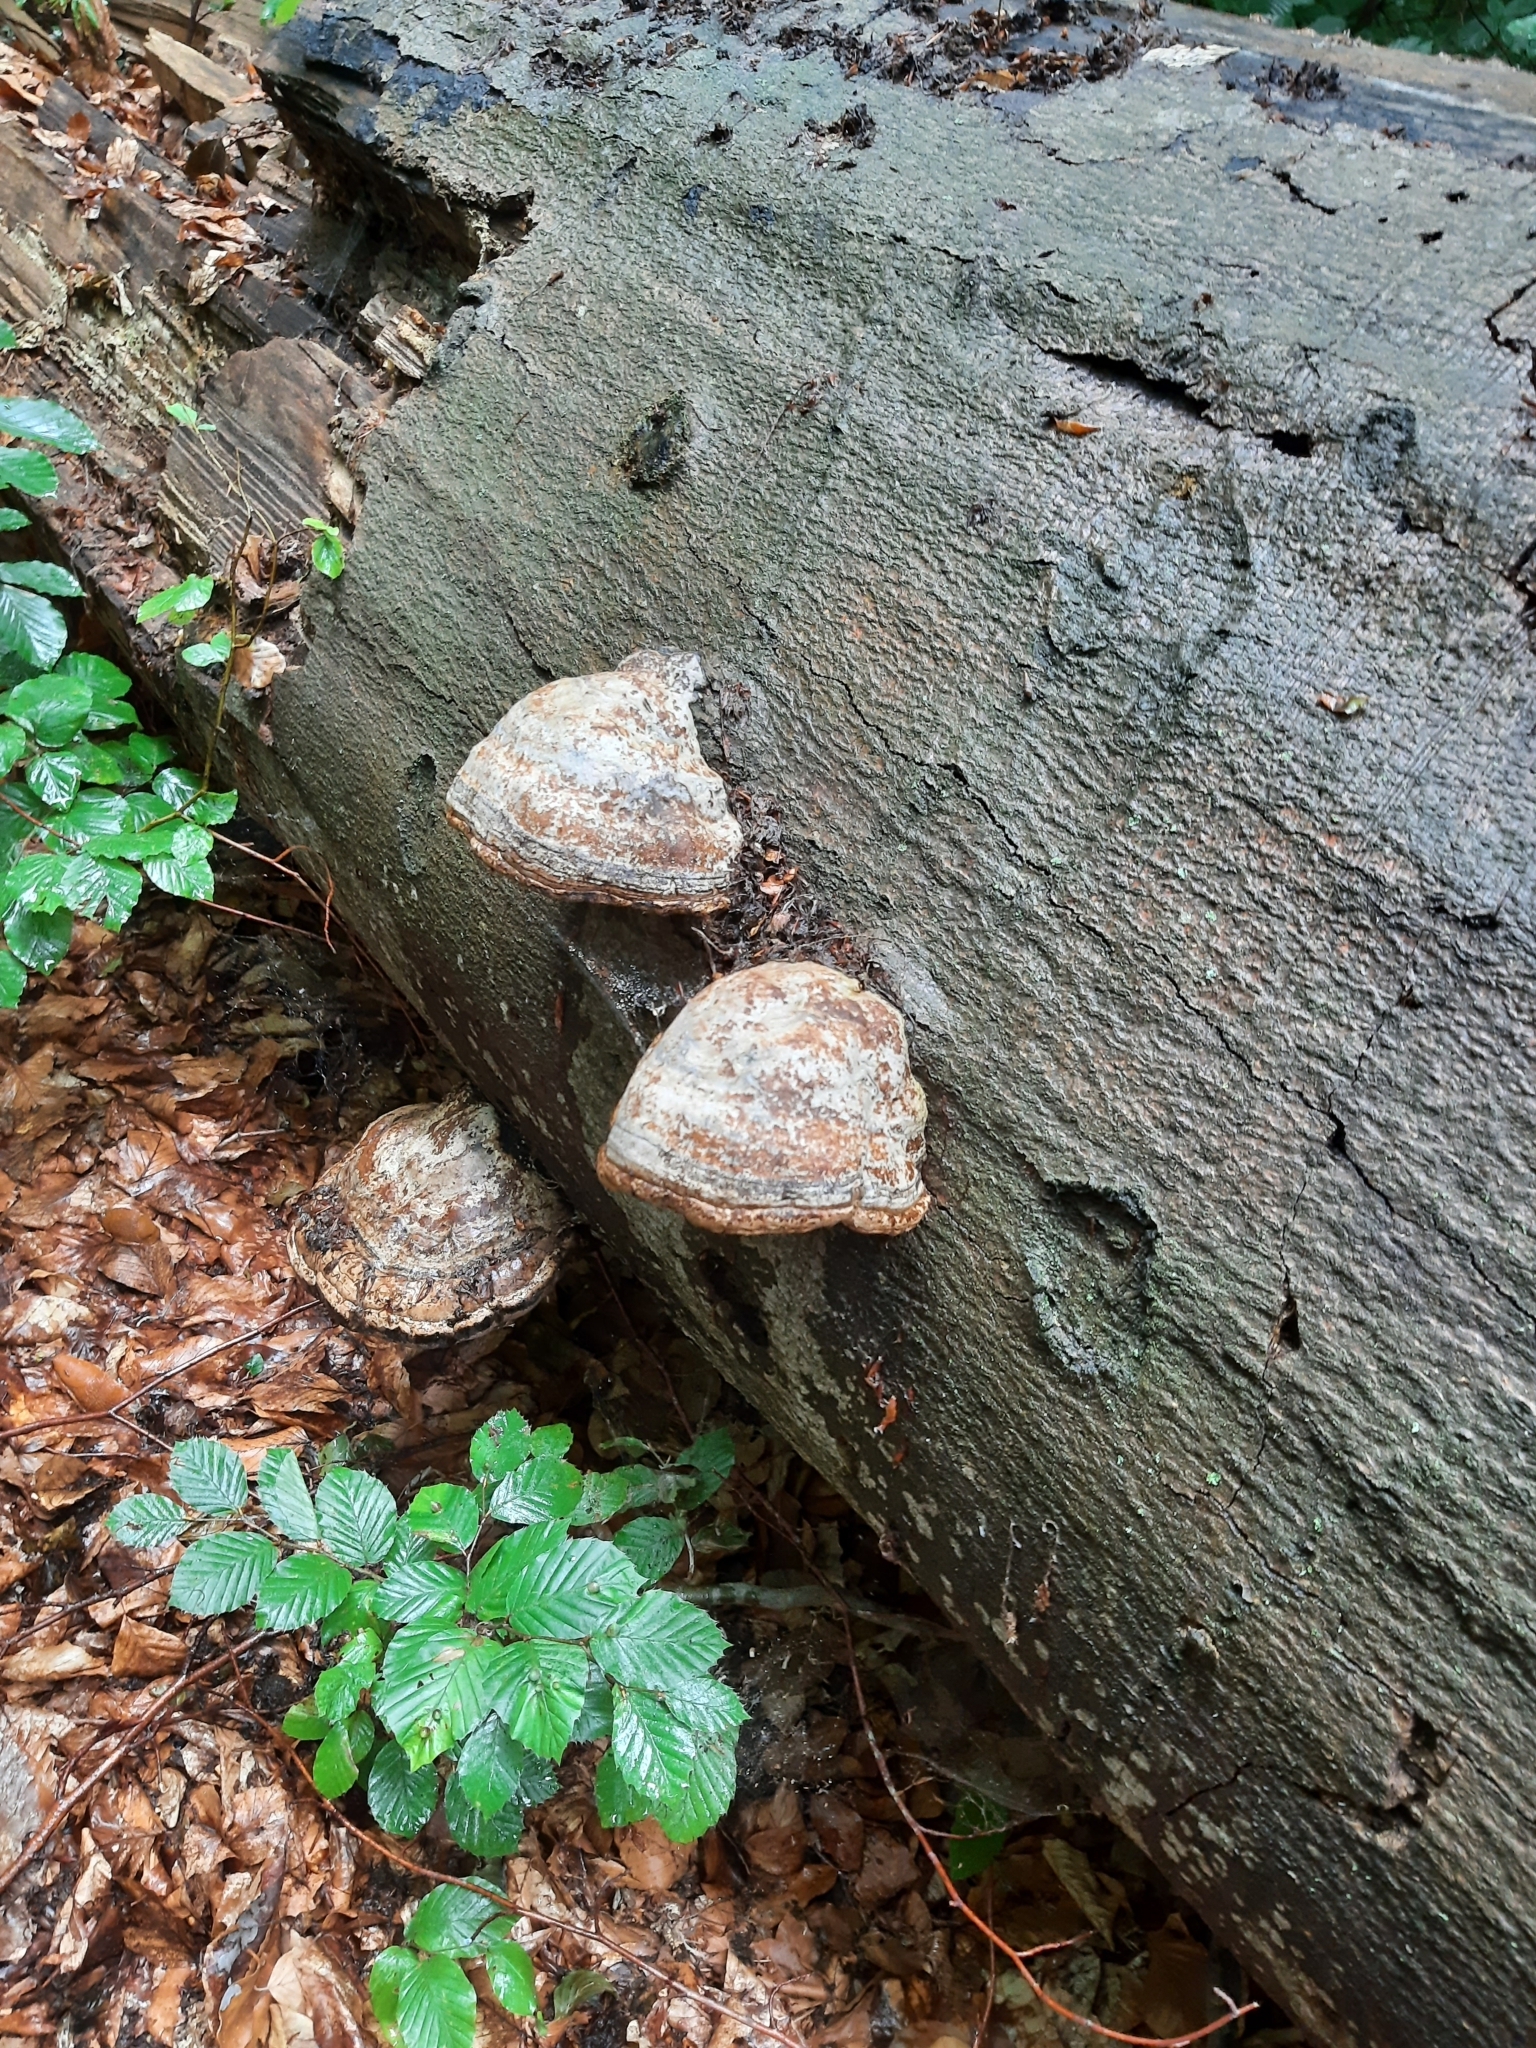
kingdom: Fungi
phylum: Basidiomycota
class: Agaricomycetes
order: Polyporales
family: Polyporaceae
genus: Fomes
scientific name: Fomes fomentarius
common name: Hoof fungus
